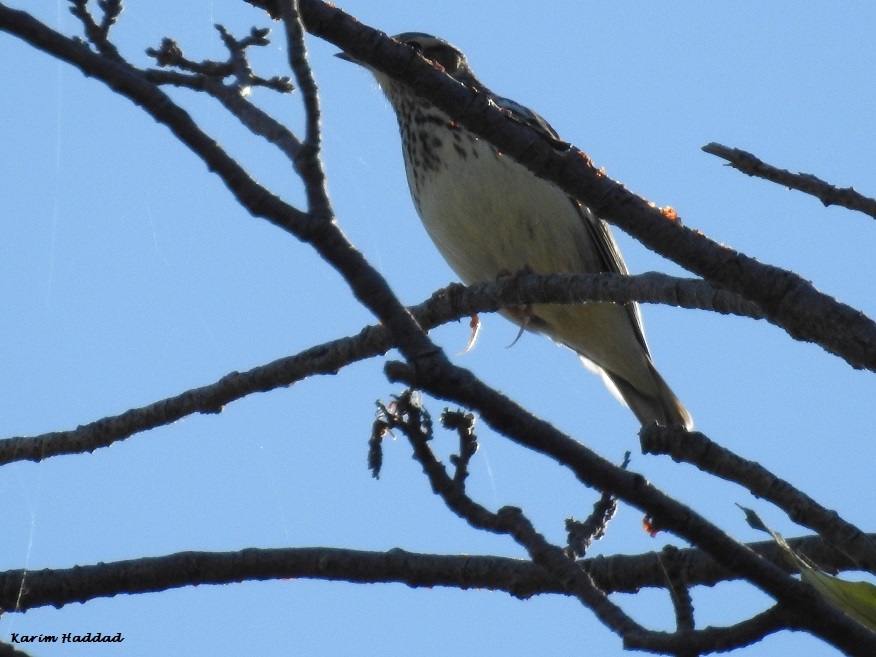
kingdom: Animalia
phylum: Chordata
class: Aves
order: Passeriformes
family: Alaudidae
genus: Lullula
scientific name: Lullula arborea
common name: Woodlark
